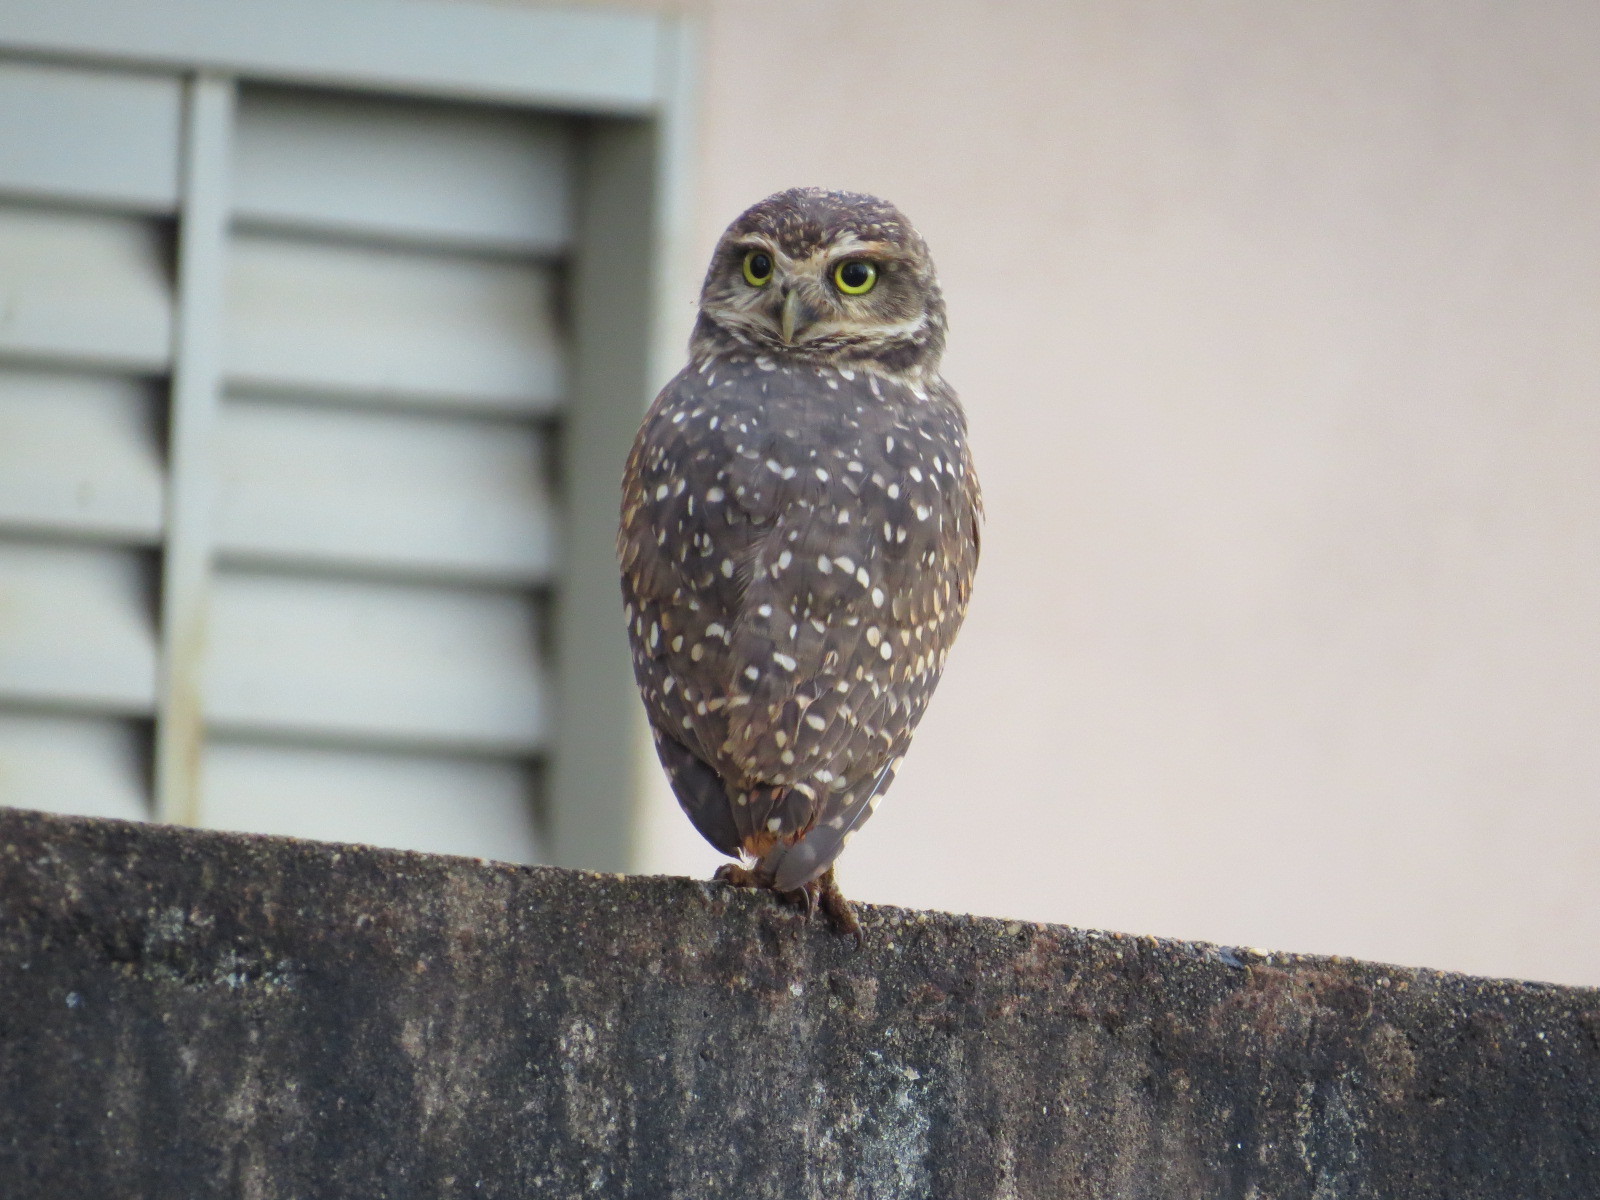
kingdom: Animalia
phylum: Chordata
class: Aves
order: Strigiformes
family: Strigidae
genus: Athene
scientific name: Athene cunicularia
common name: Burrowing owl
